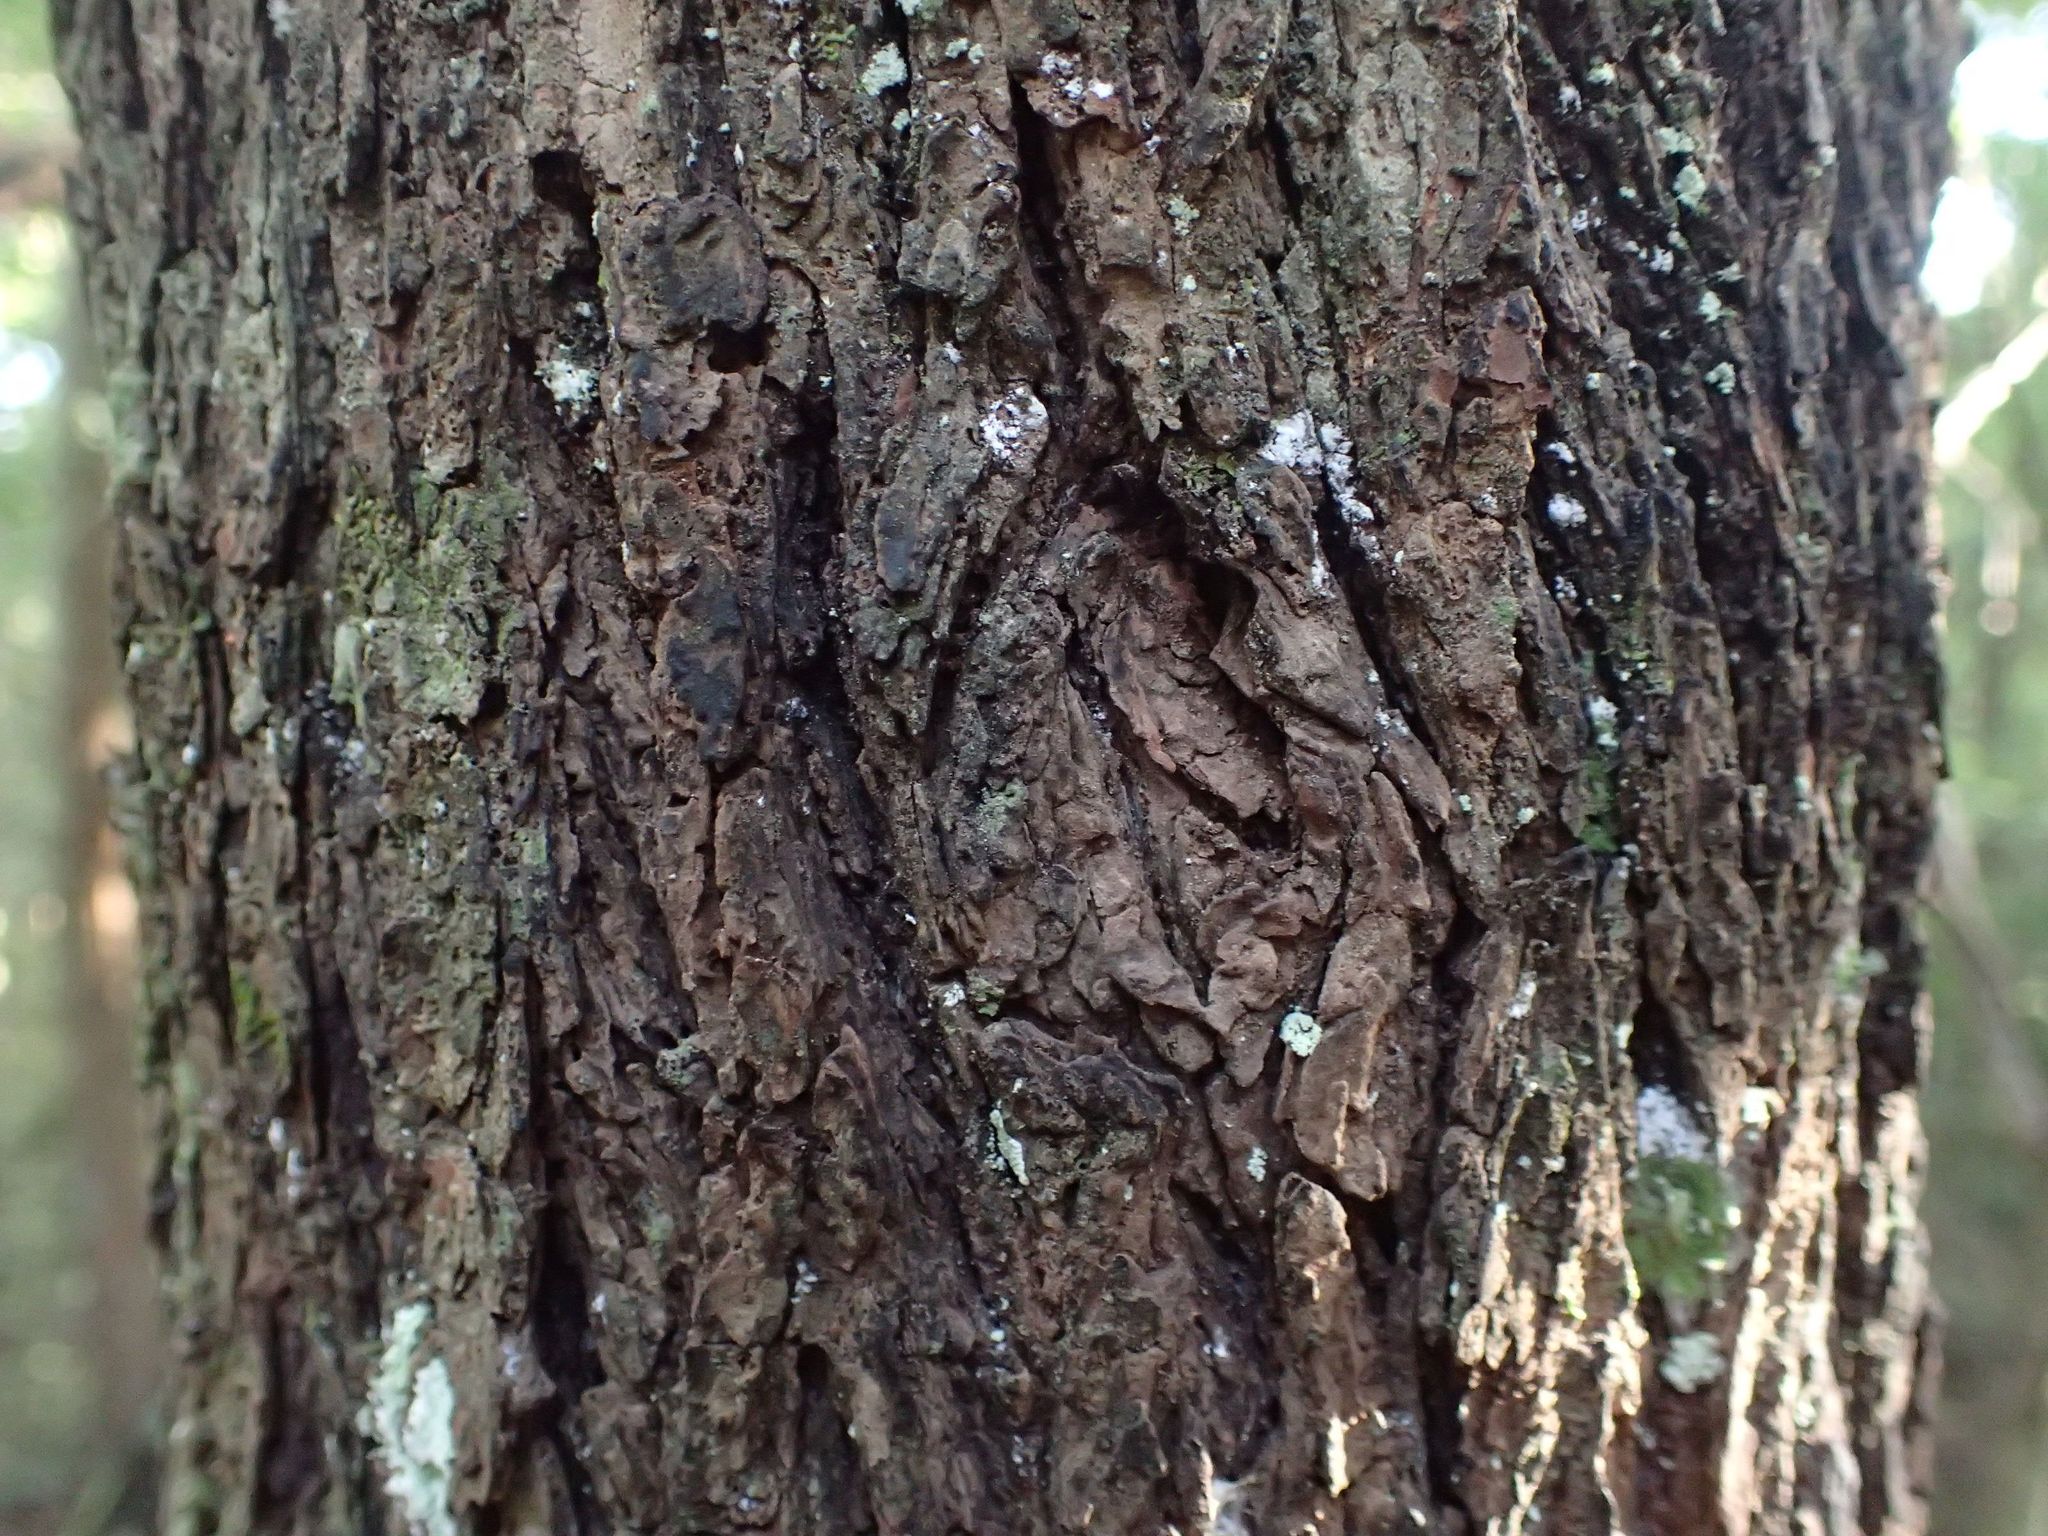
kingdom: Plantae
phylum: Tracheophyta
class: Magnoliopsida
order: Gentianales
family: Rubiaceae
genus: Coprosma
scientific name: Coprosma linariifolia
